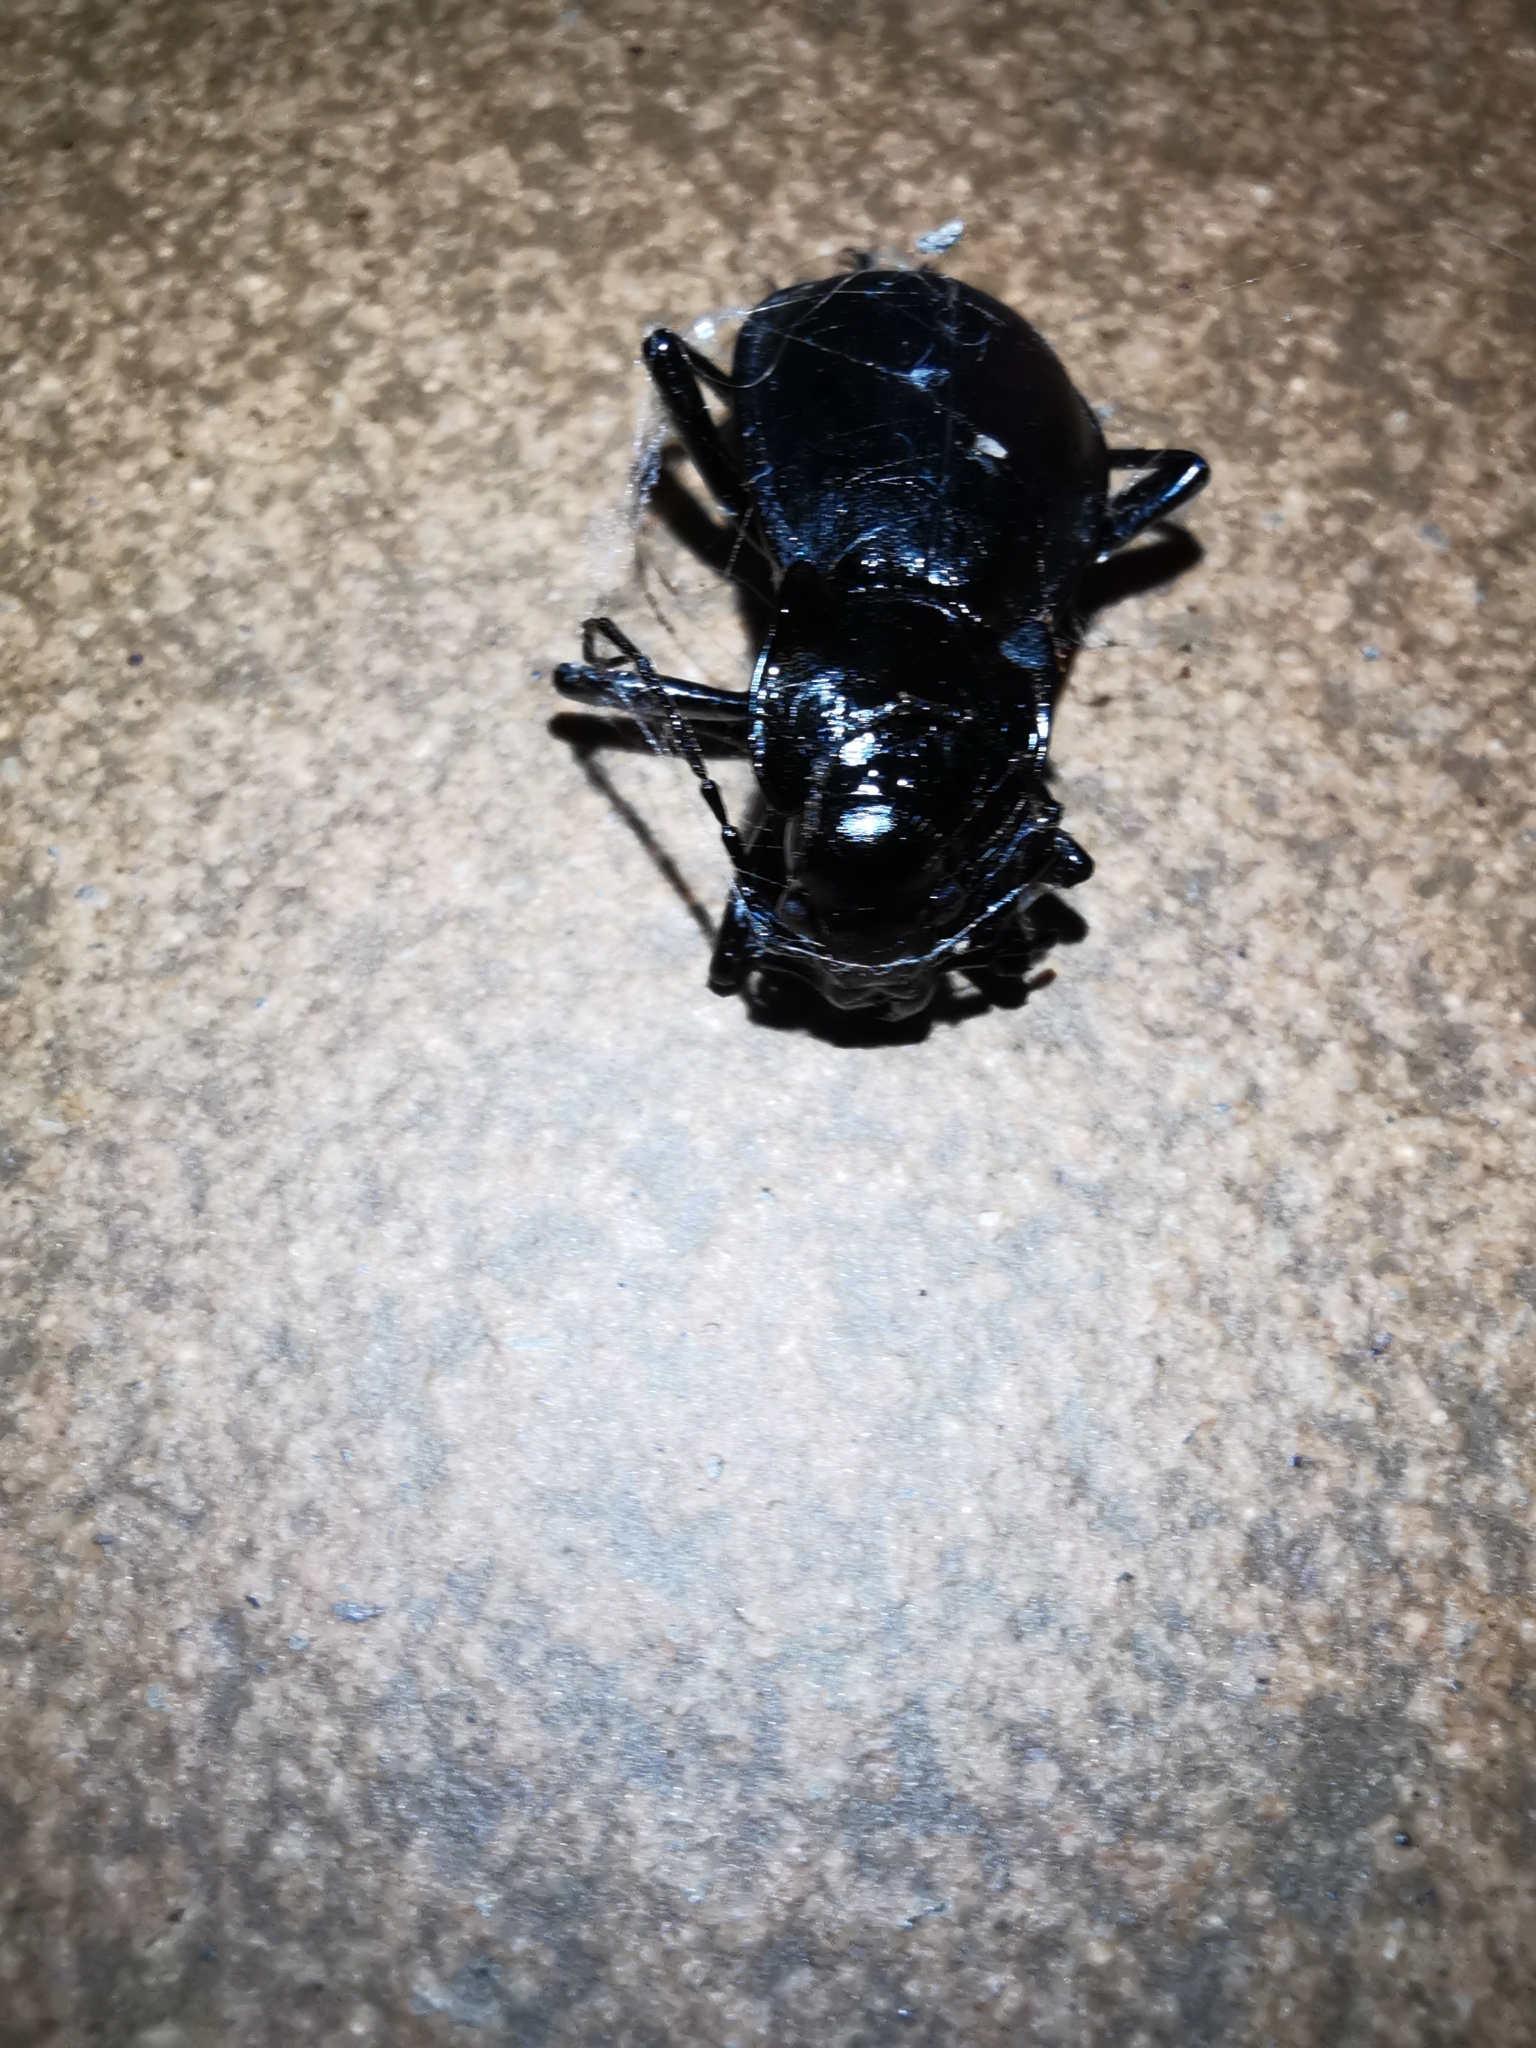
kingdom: Animalia
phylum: Arthropoda
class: Insecta
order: Coleoptera
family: Carabidae
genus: Carabus
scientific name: Carabus
